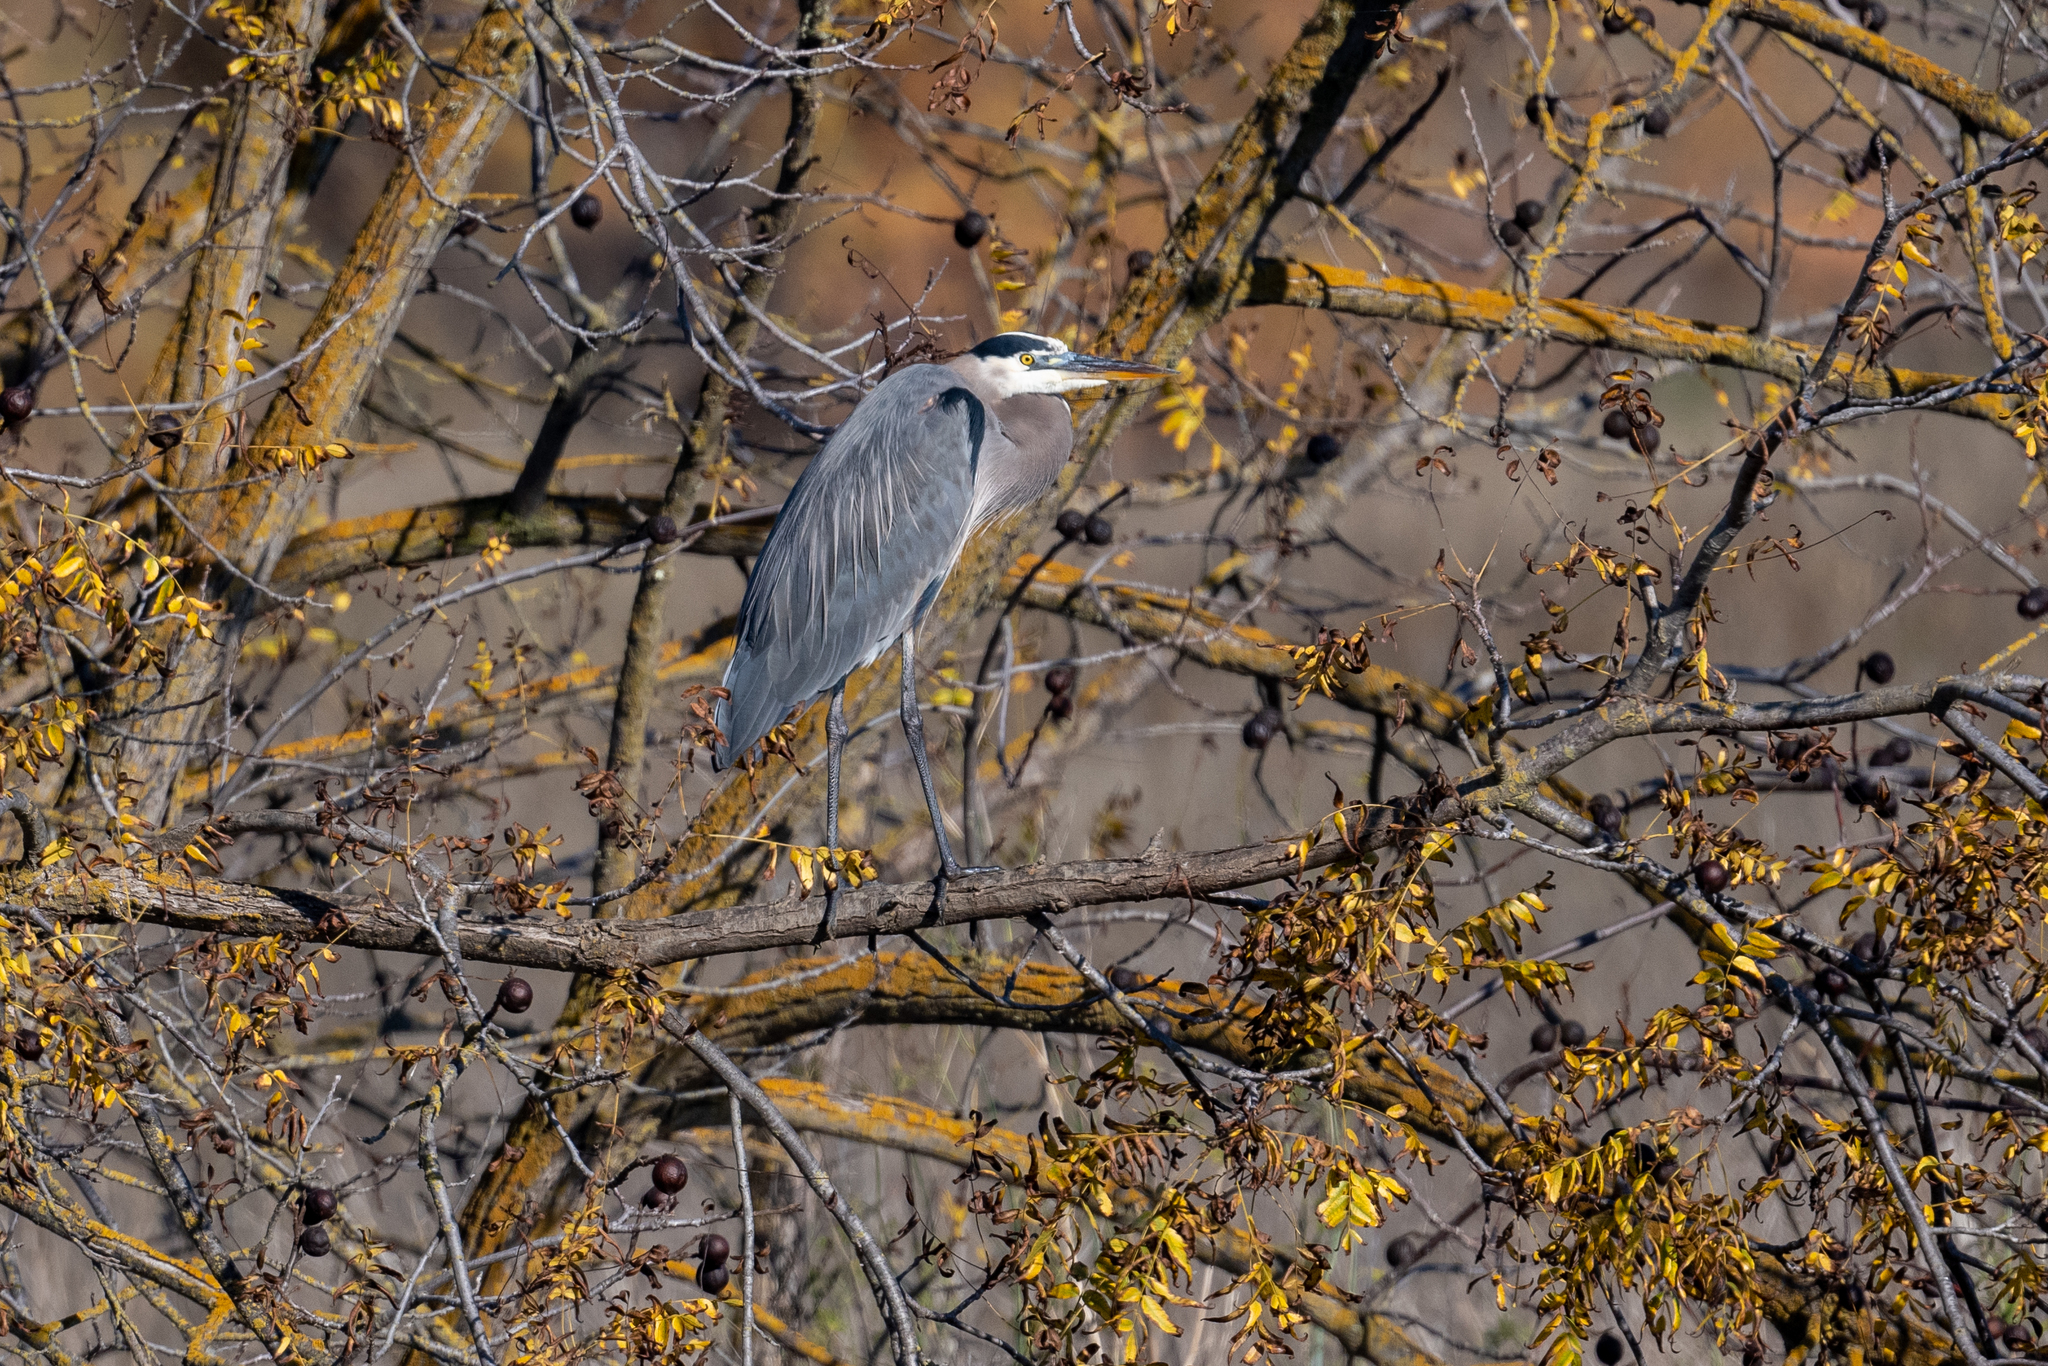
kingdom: Animalia
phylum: Chordata
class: Aves
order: Pelecaniformes
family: Ardeidae
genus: Ardea
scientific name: Ardea herodias
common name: Great blue heron
